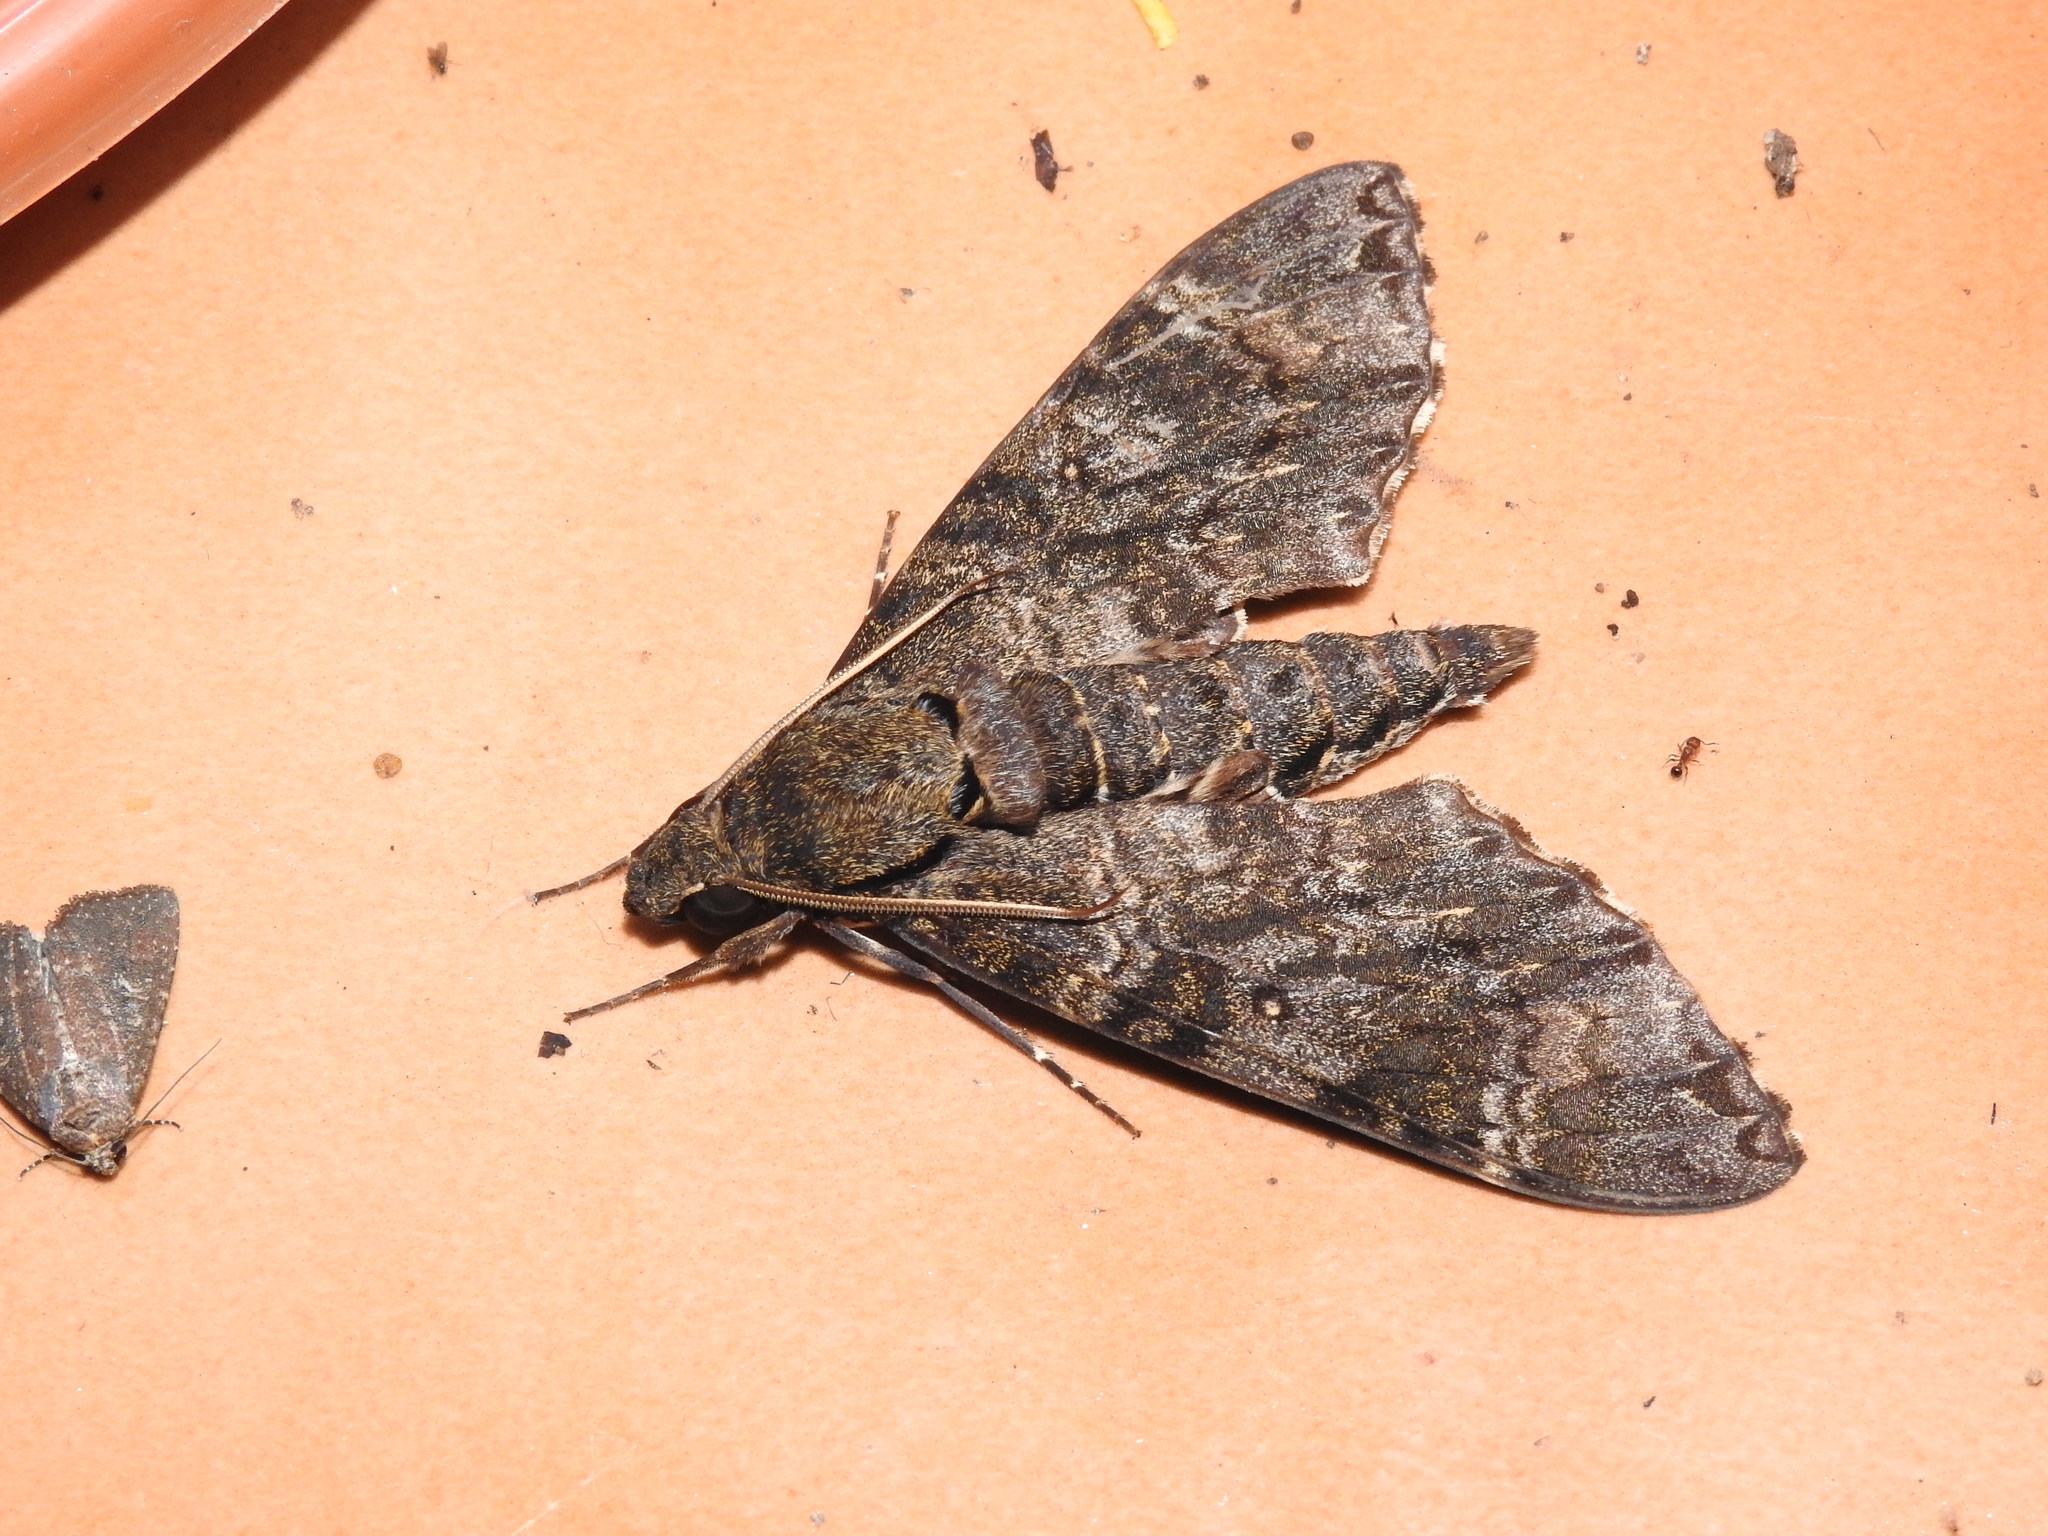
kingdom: Animalia
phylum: Arthropoda
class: Insecta
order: Lepidoptera
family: Sphingidae
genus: Meganoton
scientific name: Meganoton nyctiphanes
